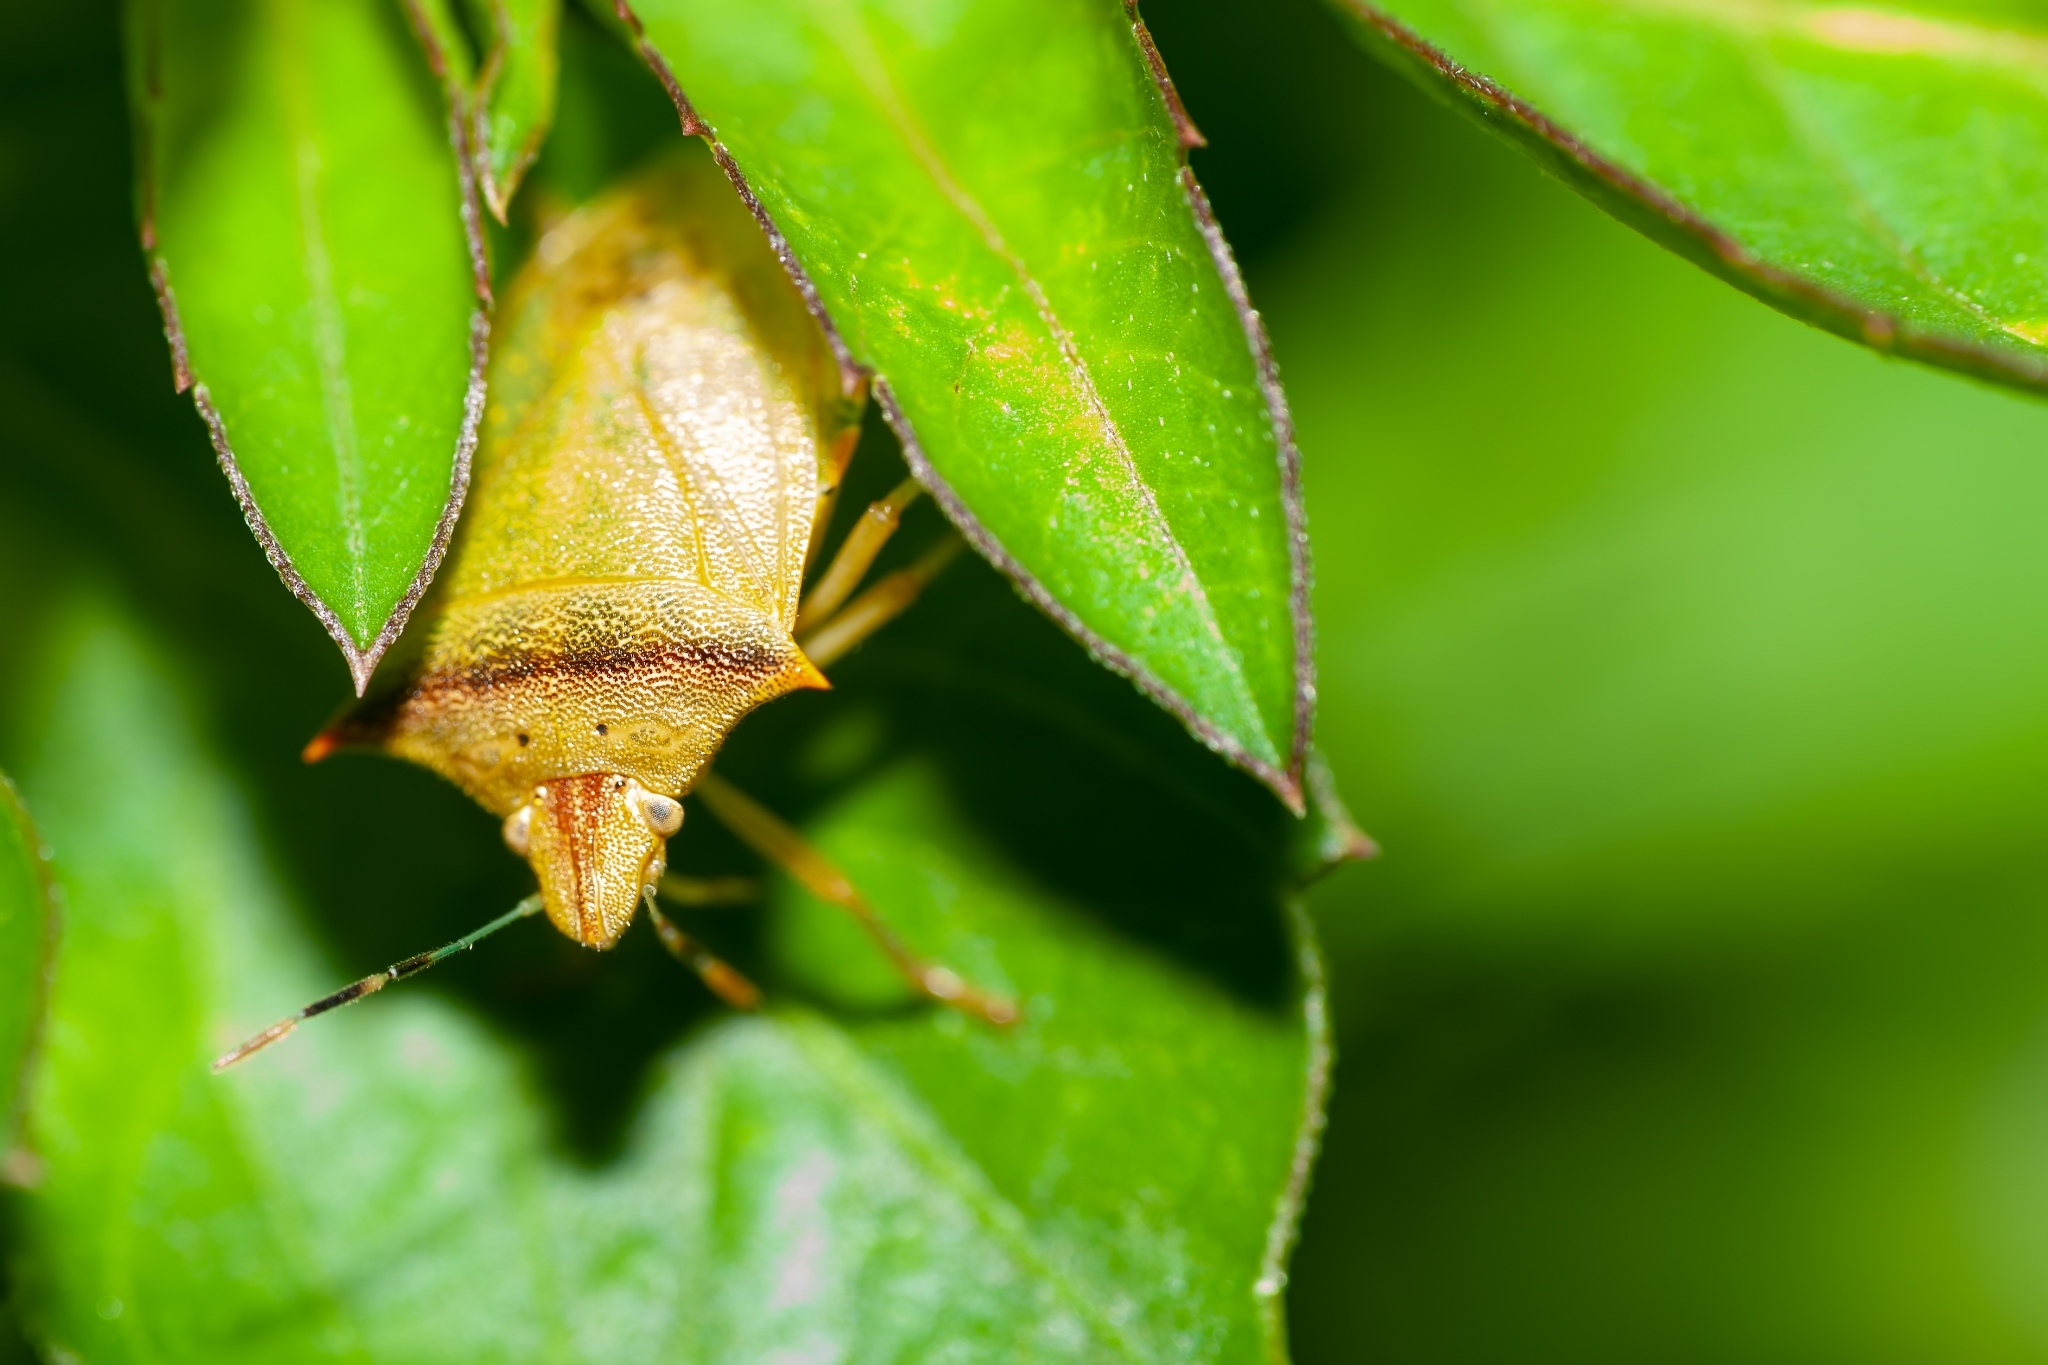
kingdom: Animalia
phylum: Arthropoda
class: Insecta
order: Hemiptera
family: Pentatomidae
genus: Thyanta
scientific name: Thyanta perditor
